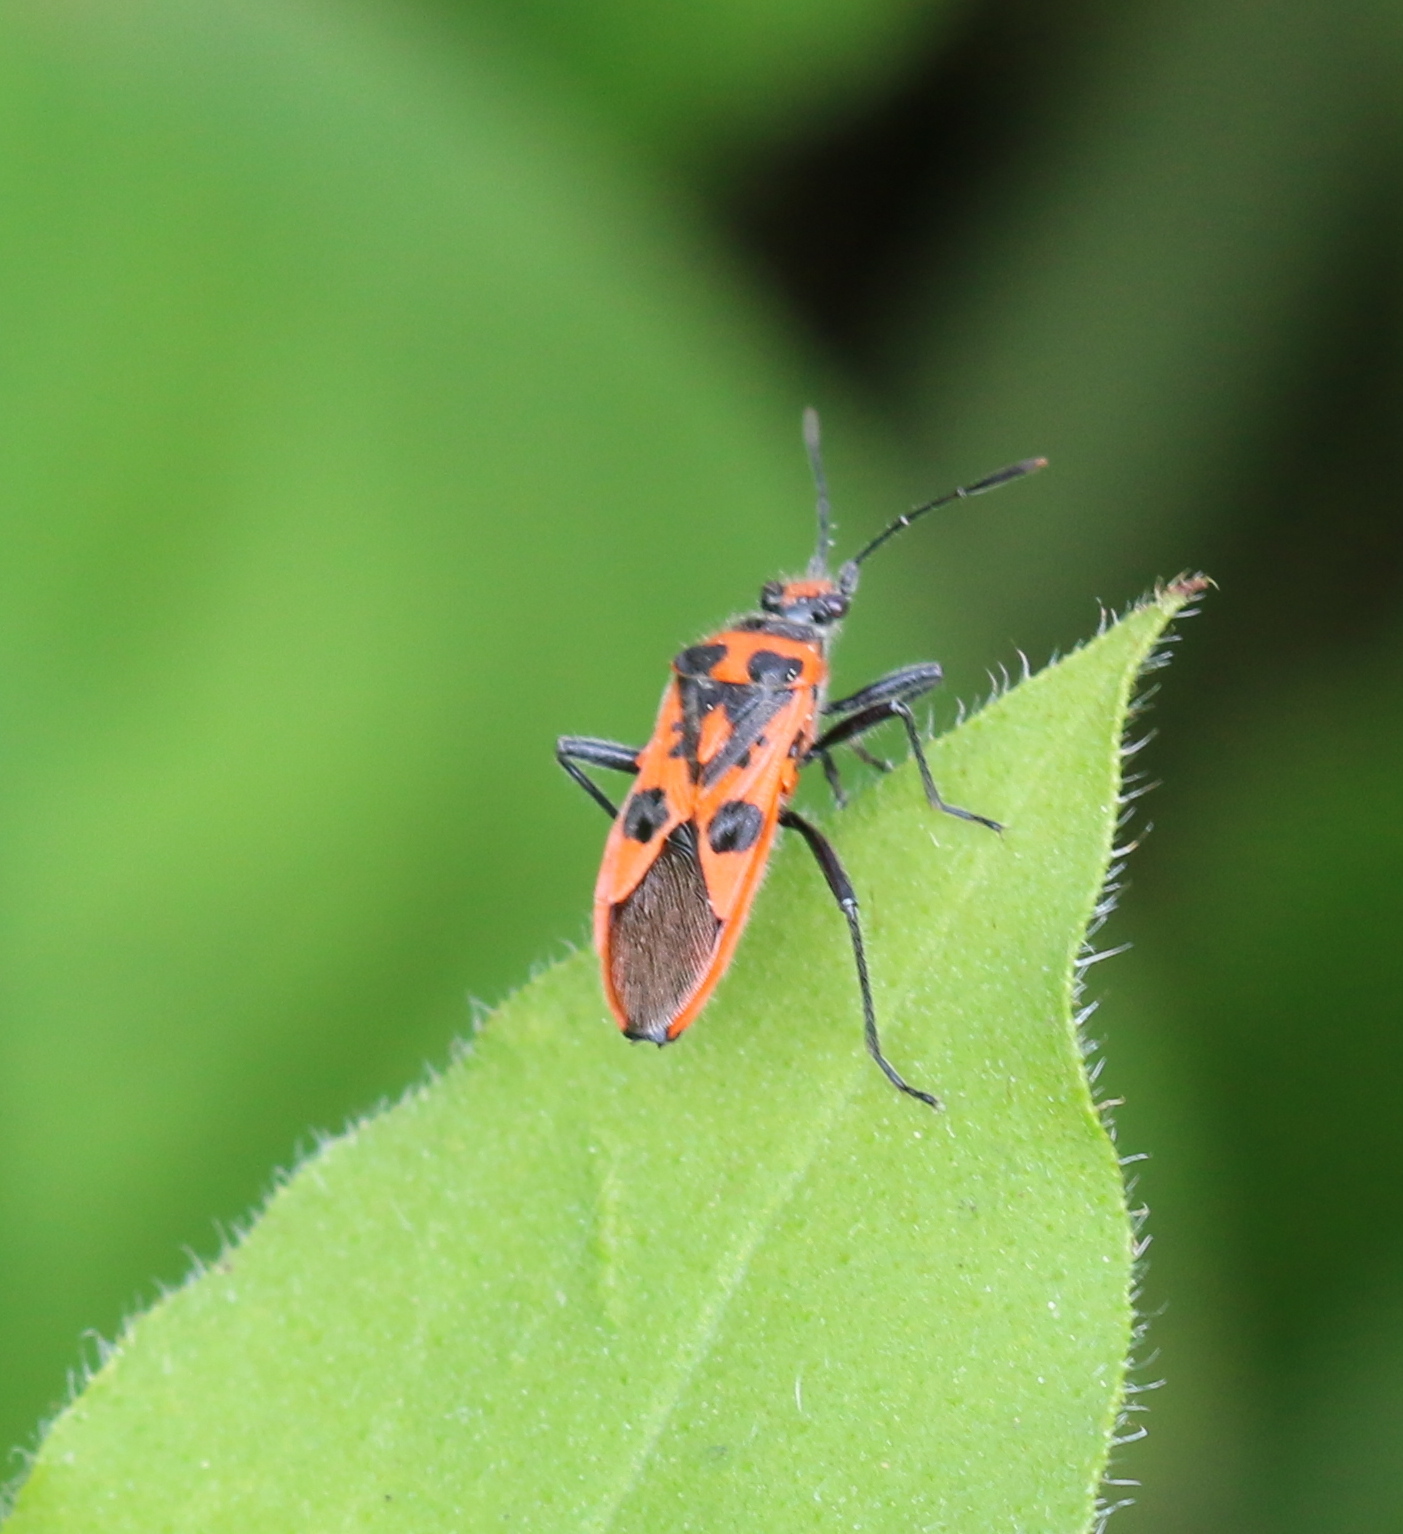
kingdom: Animalia
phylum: Arthropoda
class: Insecta
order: Hemiptera
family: Rhopalidae
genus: Corizus
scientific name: Corizus hyoscyami
